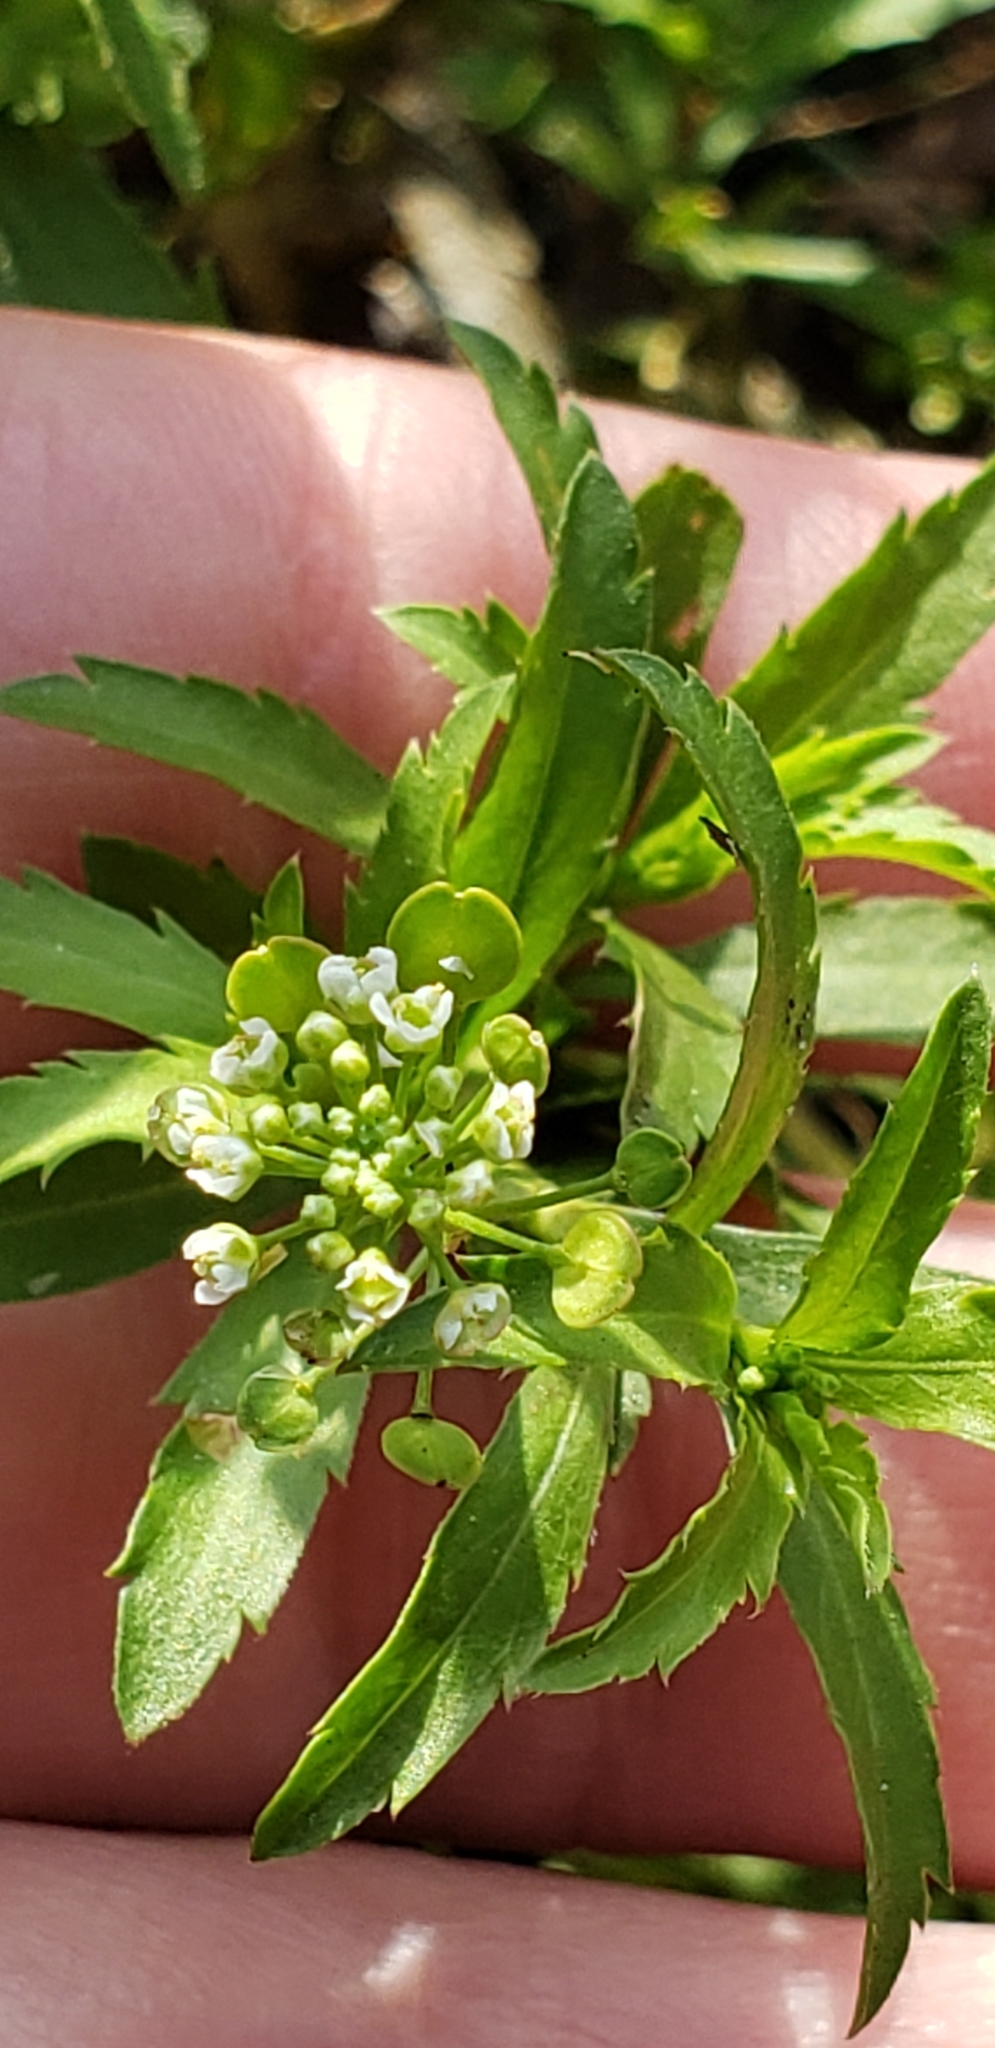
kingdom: Plantae
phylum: Tracheophyta
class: Magnoliopsida
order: Brassicales
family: Brassicaceae
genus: Lepidium
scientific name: Lepidium virginicum
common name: Least pepperwort
